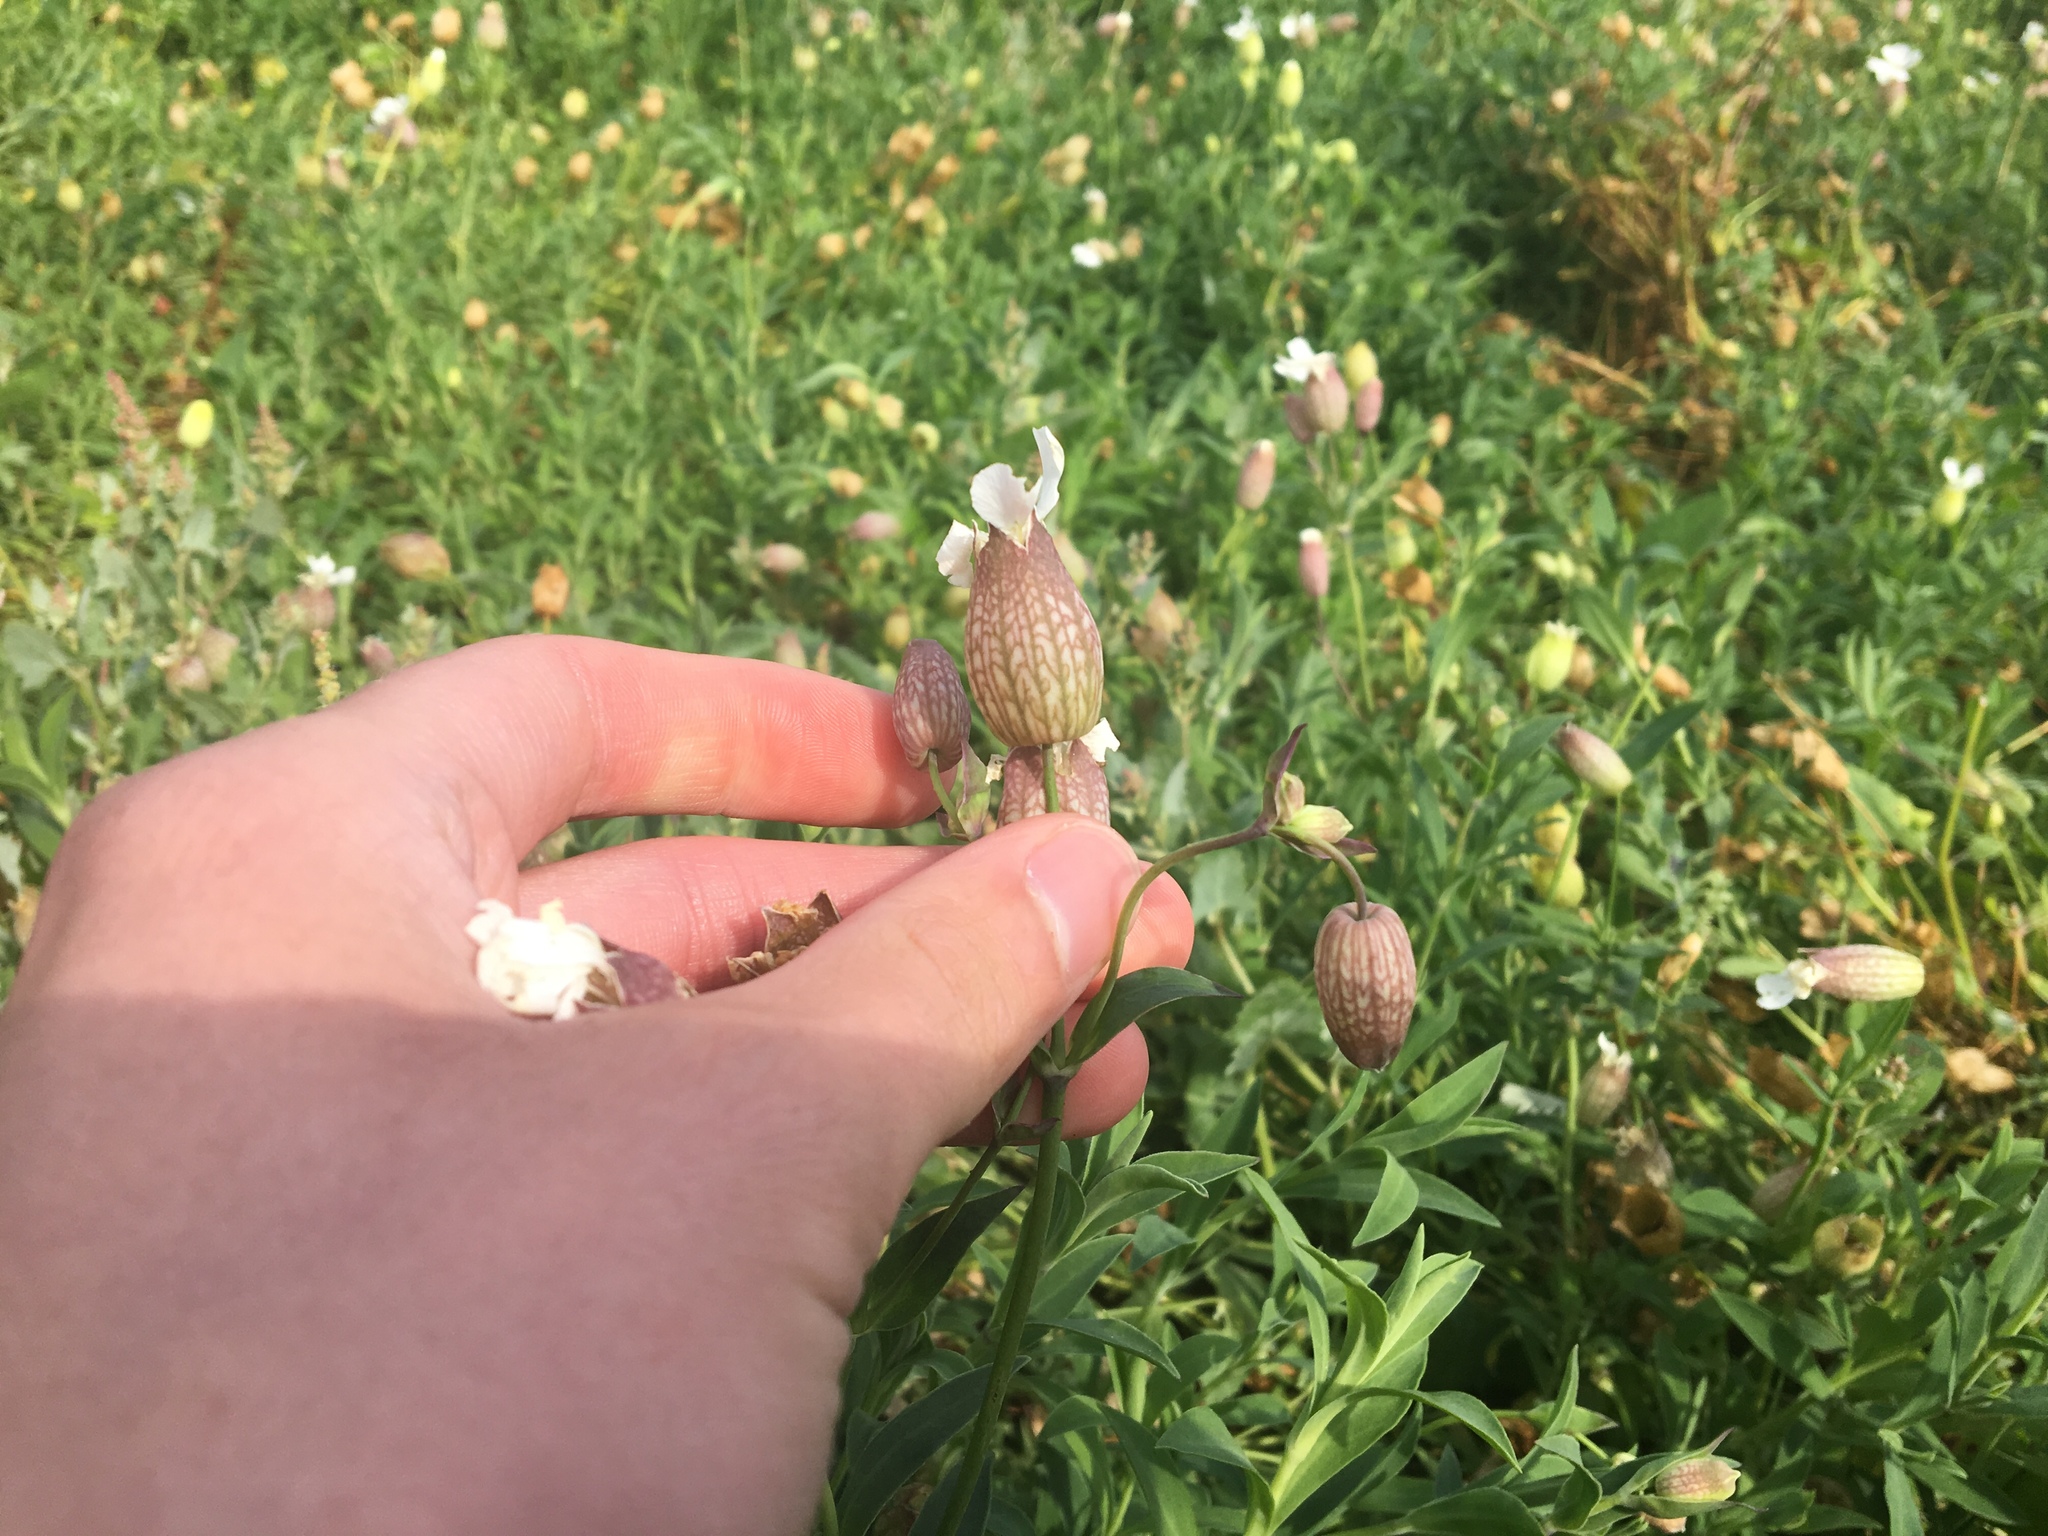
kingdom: Plantae
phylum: Tracheophyta
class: Magnoliopsida
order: Caryophyllales
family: Caryophyllaceae
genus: Silene
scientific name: Silene uniflora
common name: Sea campion
